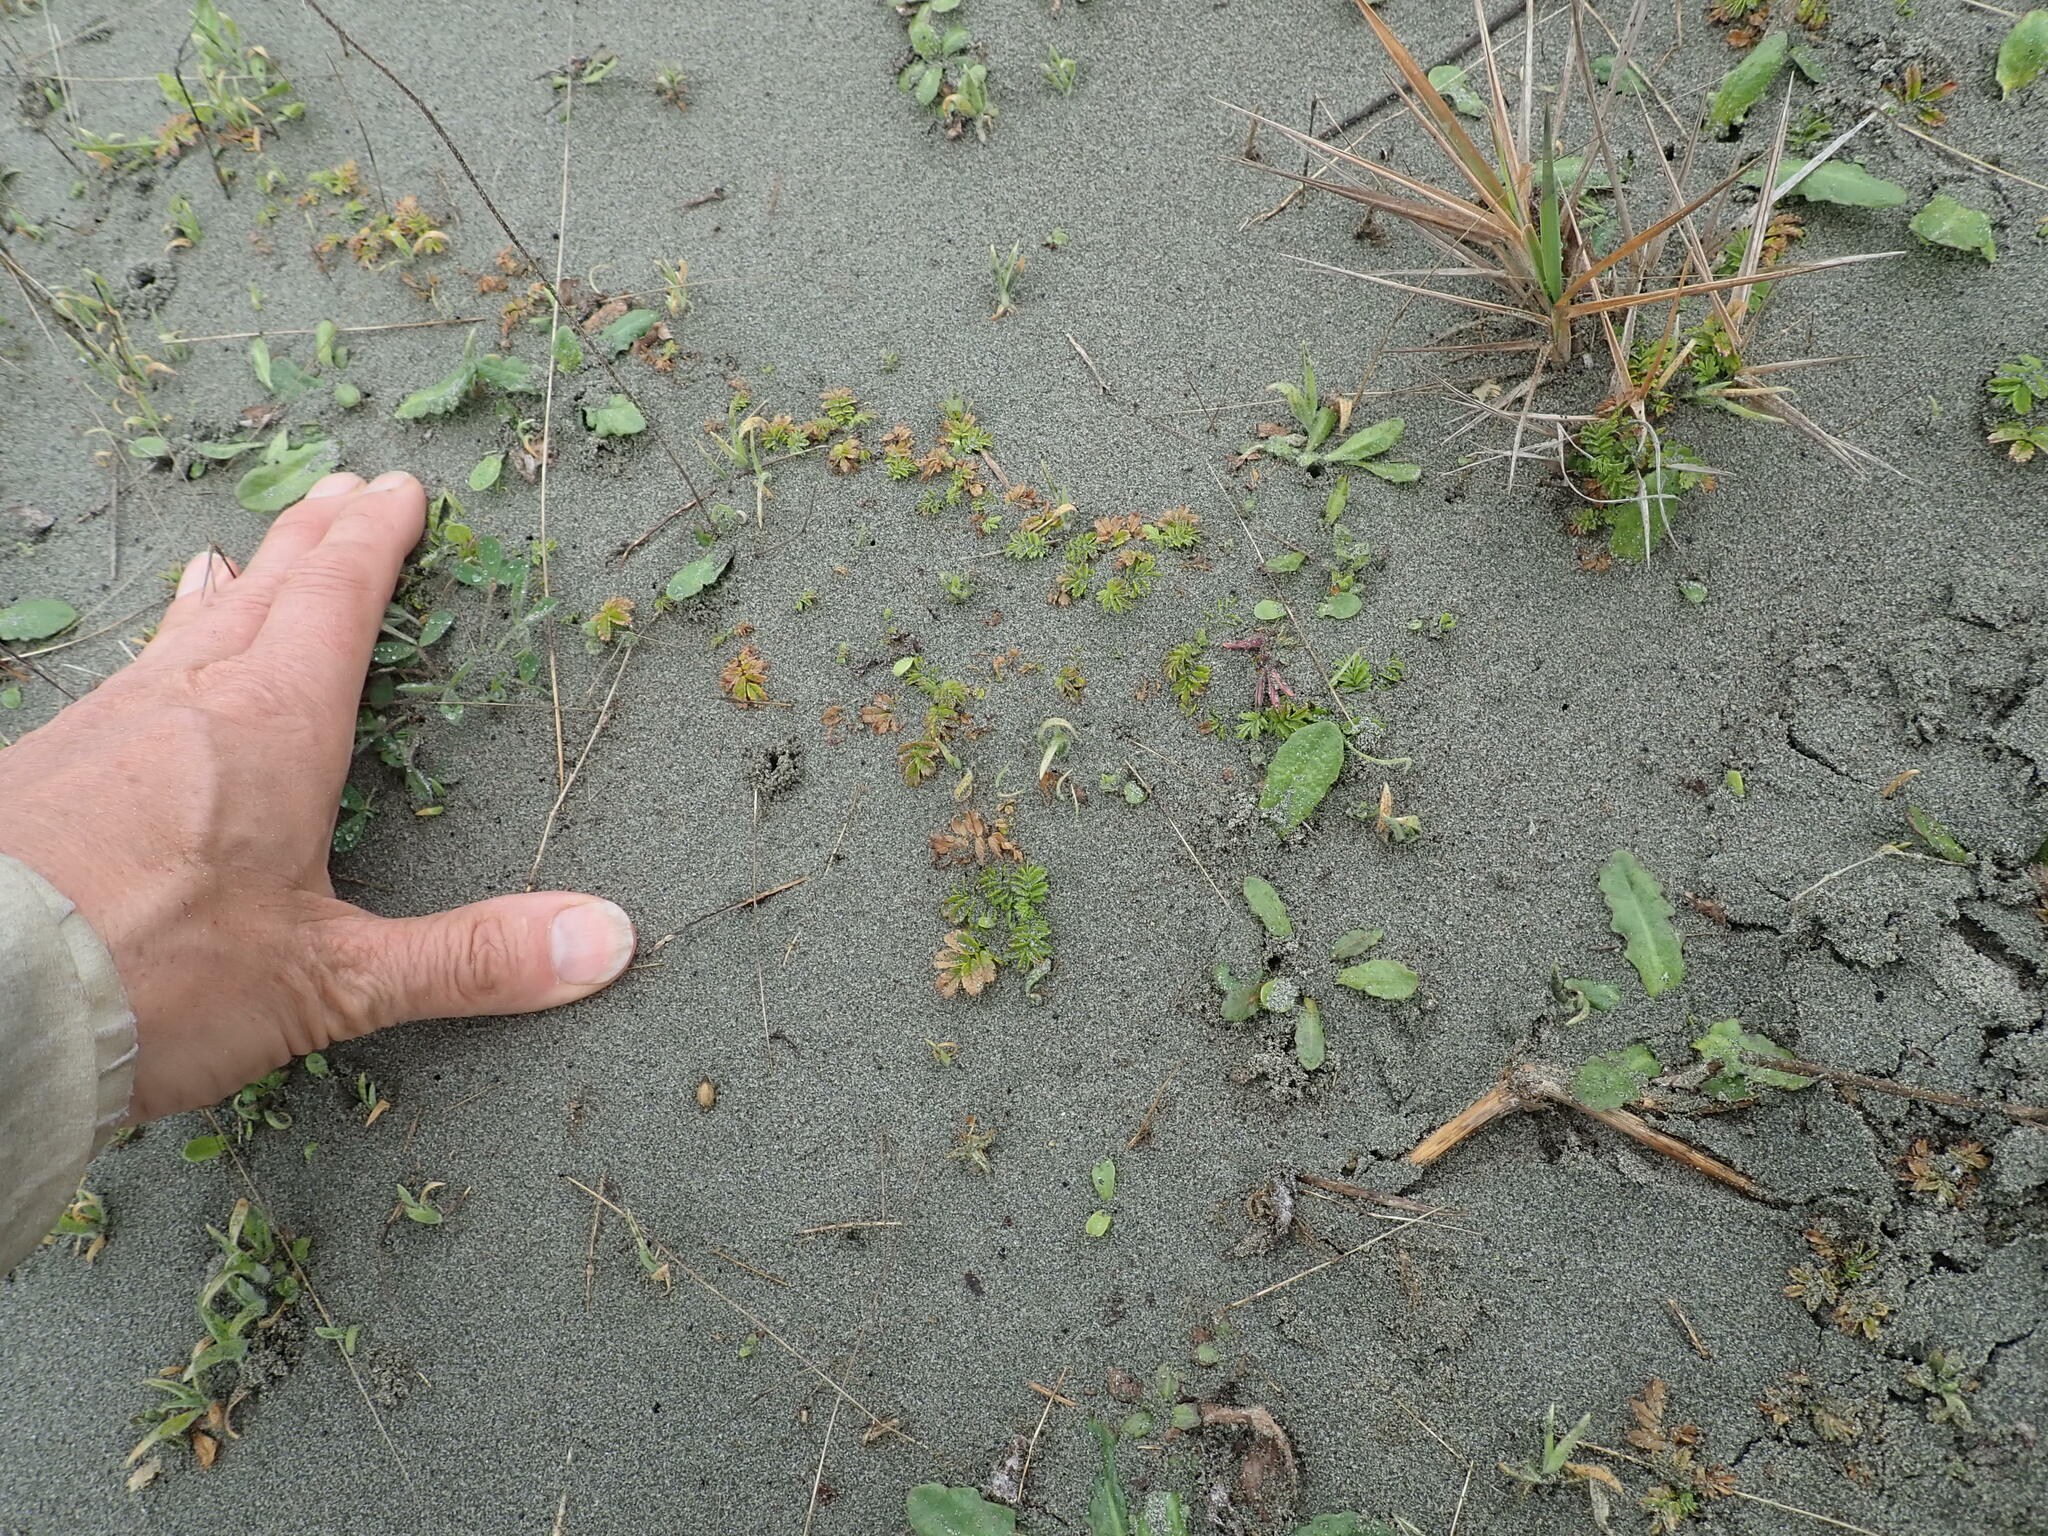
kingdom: Plantae
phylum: Tracheophyta
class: Magnoliopsida
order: Rosales
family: Rosaceae
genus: Acaena
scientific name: Acaena novae-zelandiae
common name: Pirri-pirri-bur
